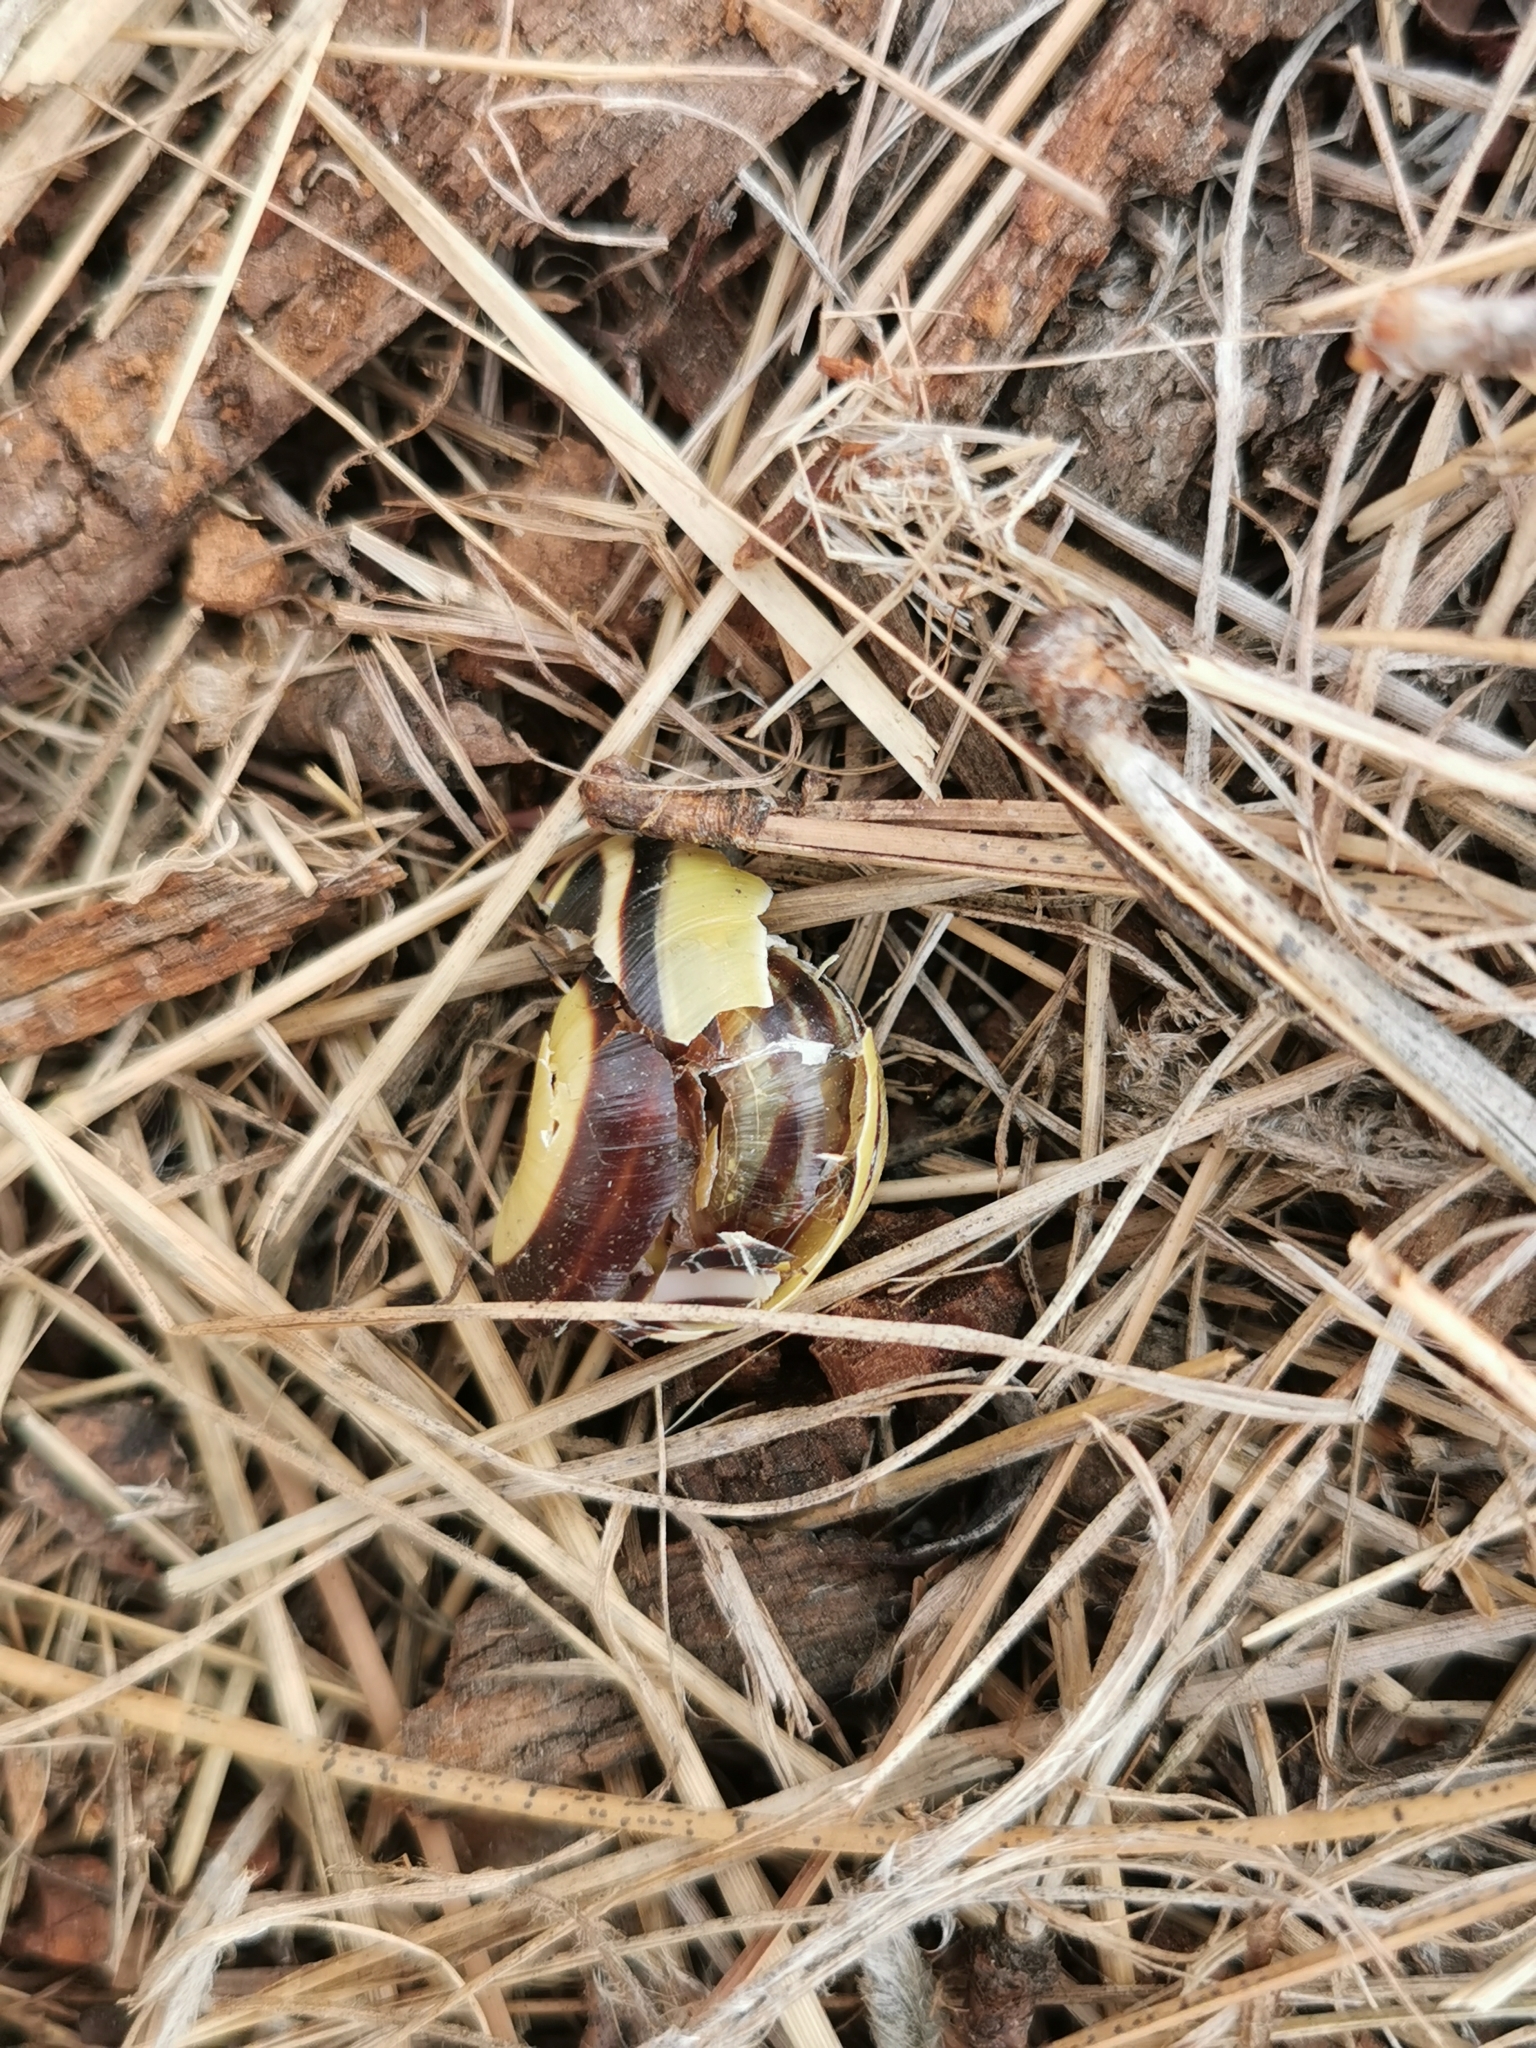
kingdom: Animalia
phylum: Mollusca
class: Gastropoda
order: Stylommatophora
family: Helicidae
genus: Cepaea
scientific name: Cepaea nemoralis
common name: Grovesnail
